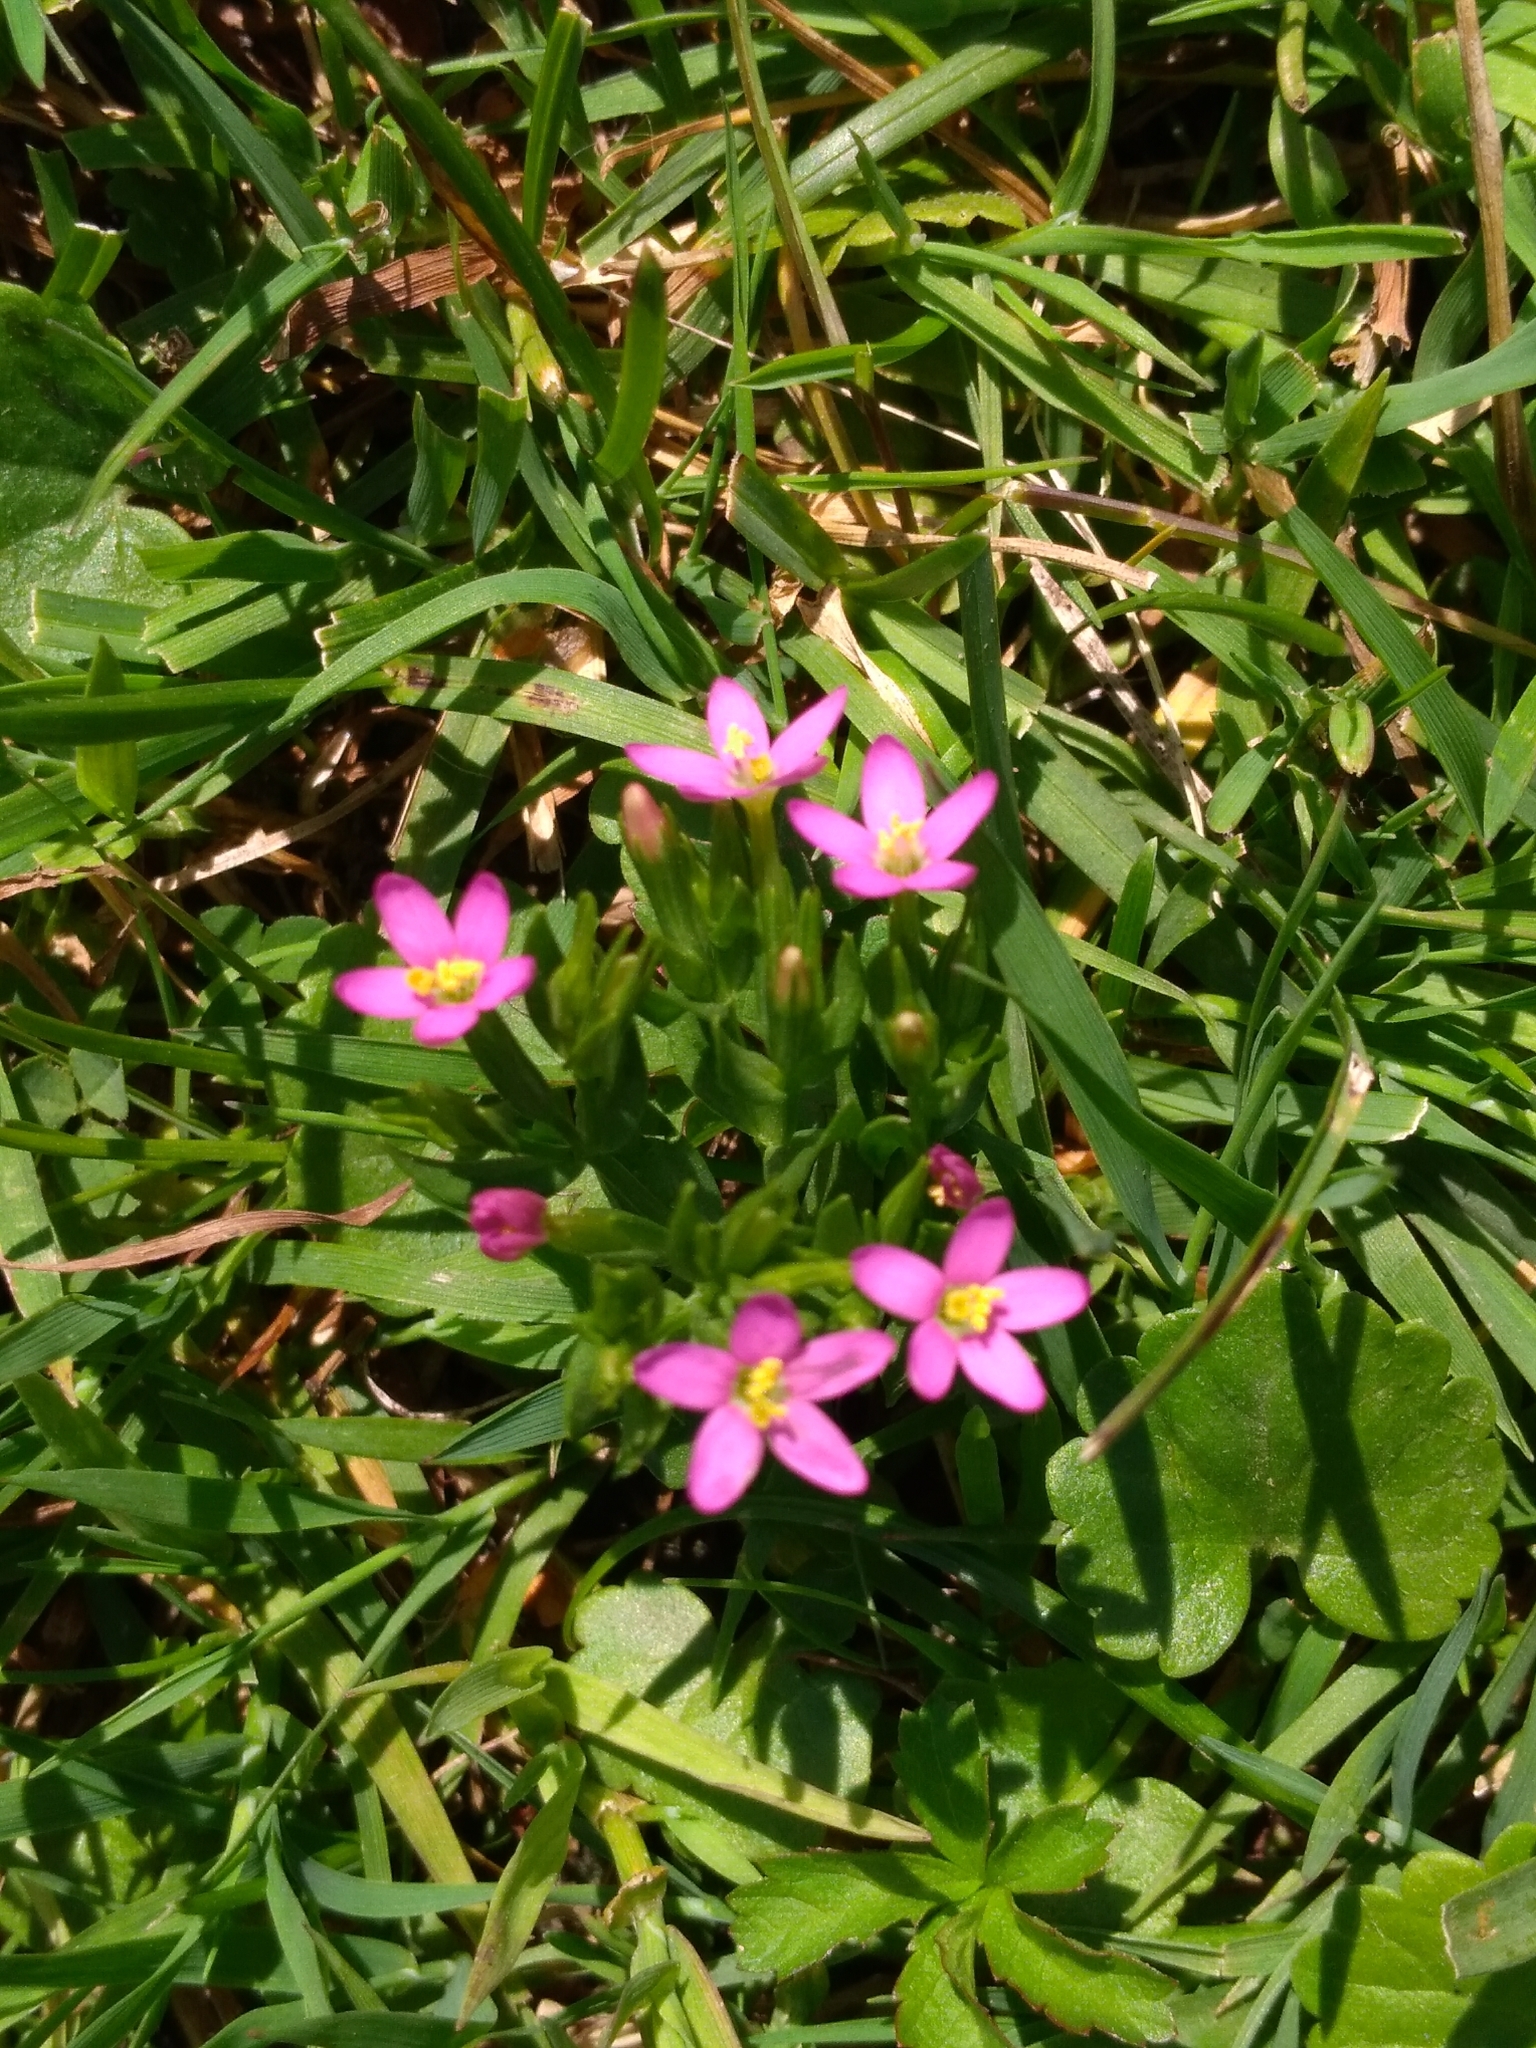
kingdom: Plantae
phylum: Tracheophyta
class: Magnoliopsida
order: Gentianales
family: Gentianaceae
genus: Centaurium
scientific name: Centaurium pulchellum
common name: Lesser centaury
